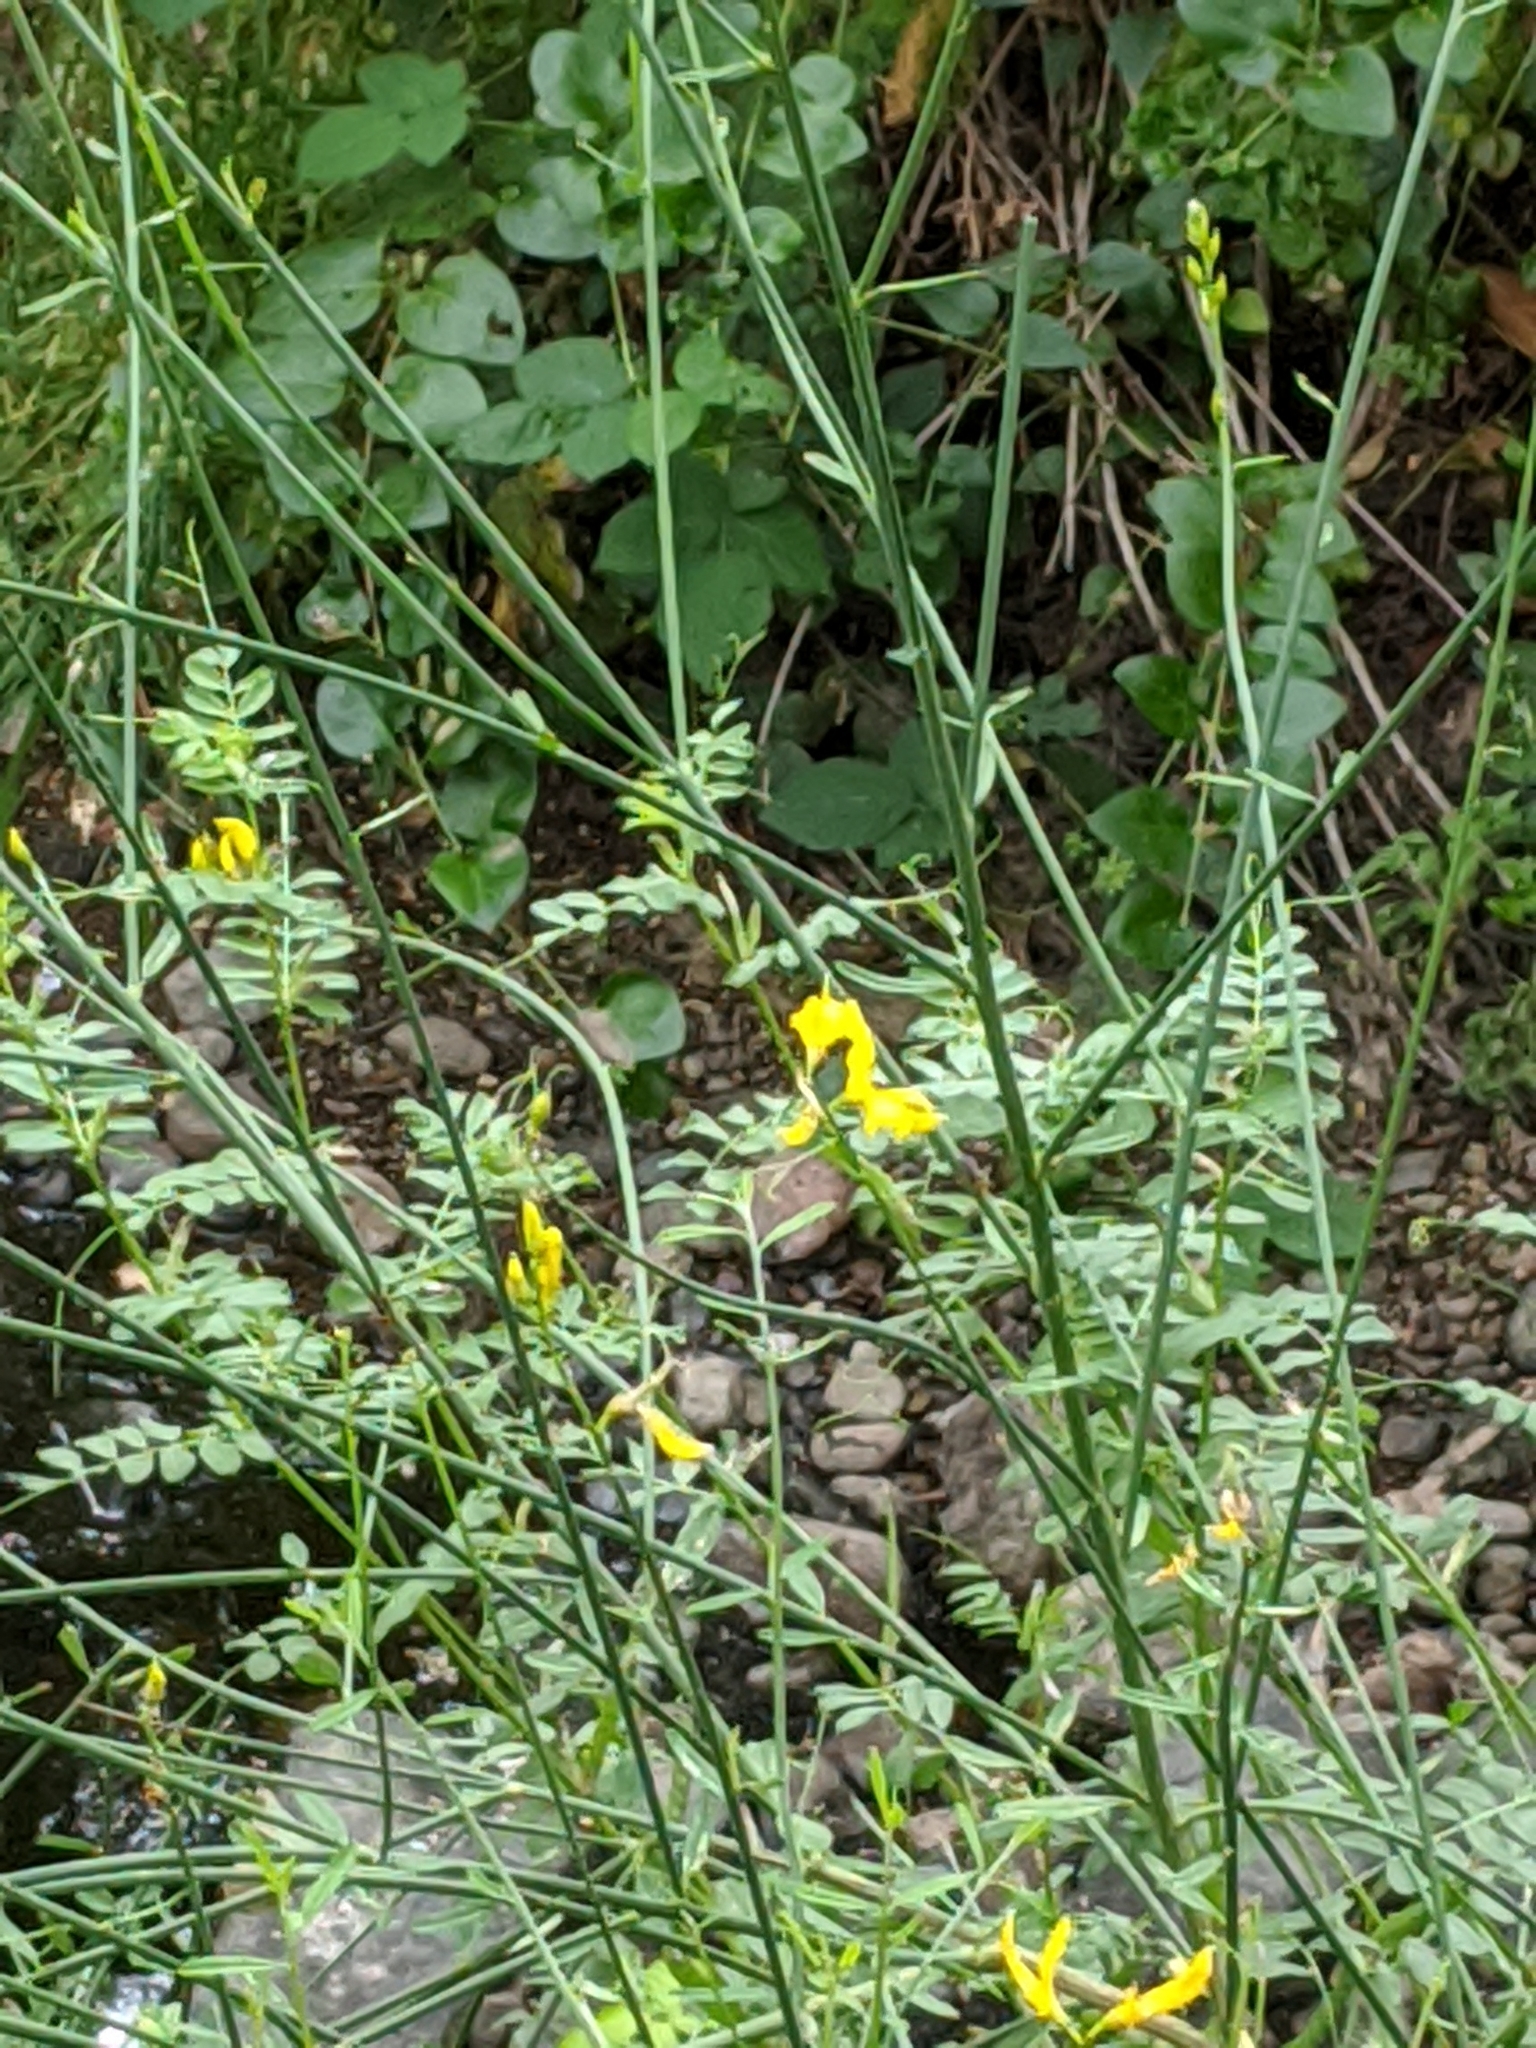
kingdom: Plantae
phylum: Tracheophyta
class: Magnoliopsida
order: Fabales
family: Fabaceae
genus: Spartium
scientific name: Spartium junceum
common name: Spanish broom
